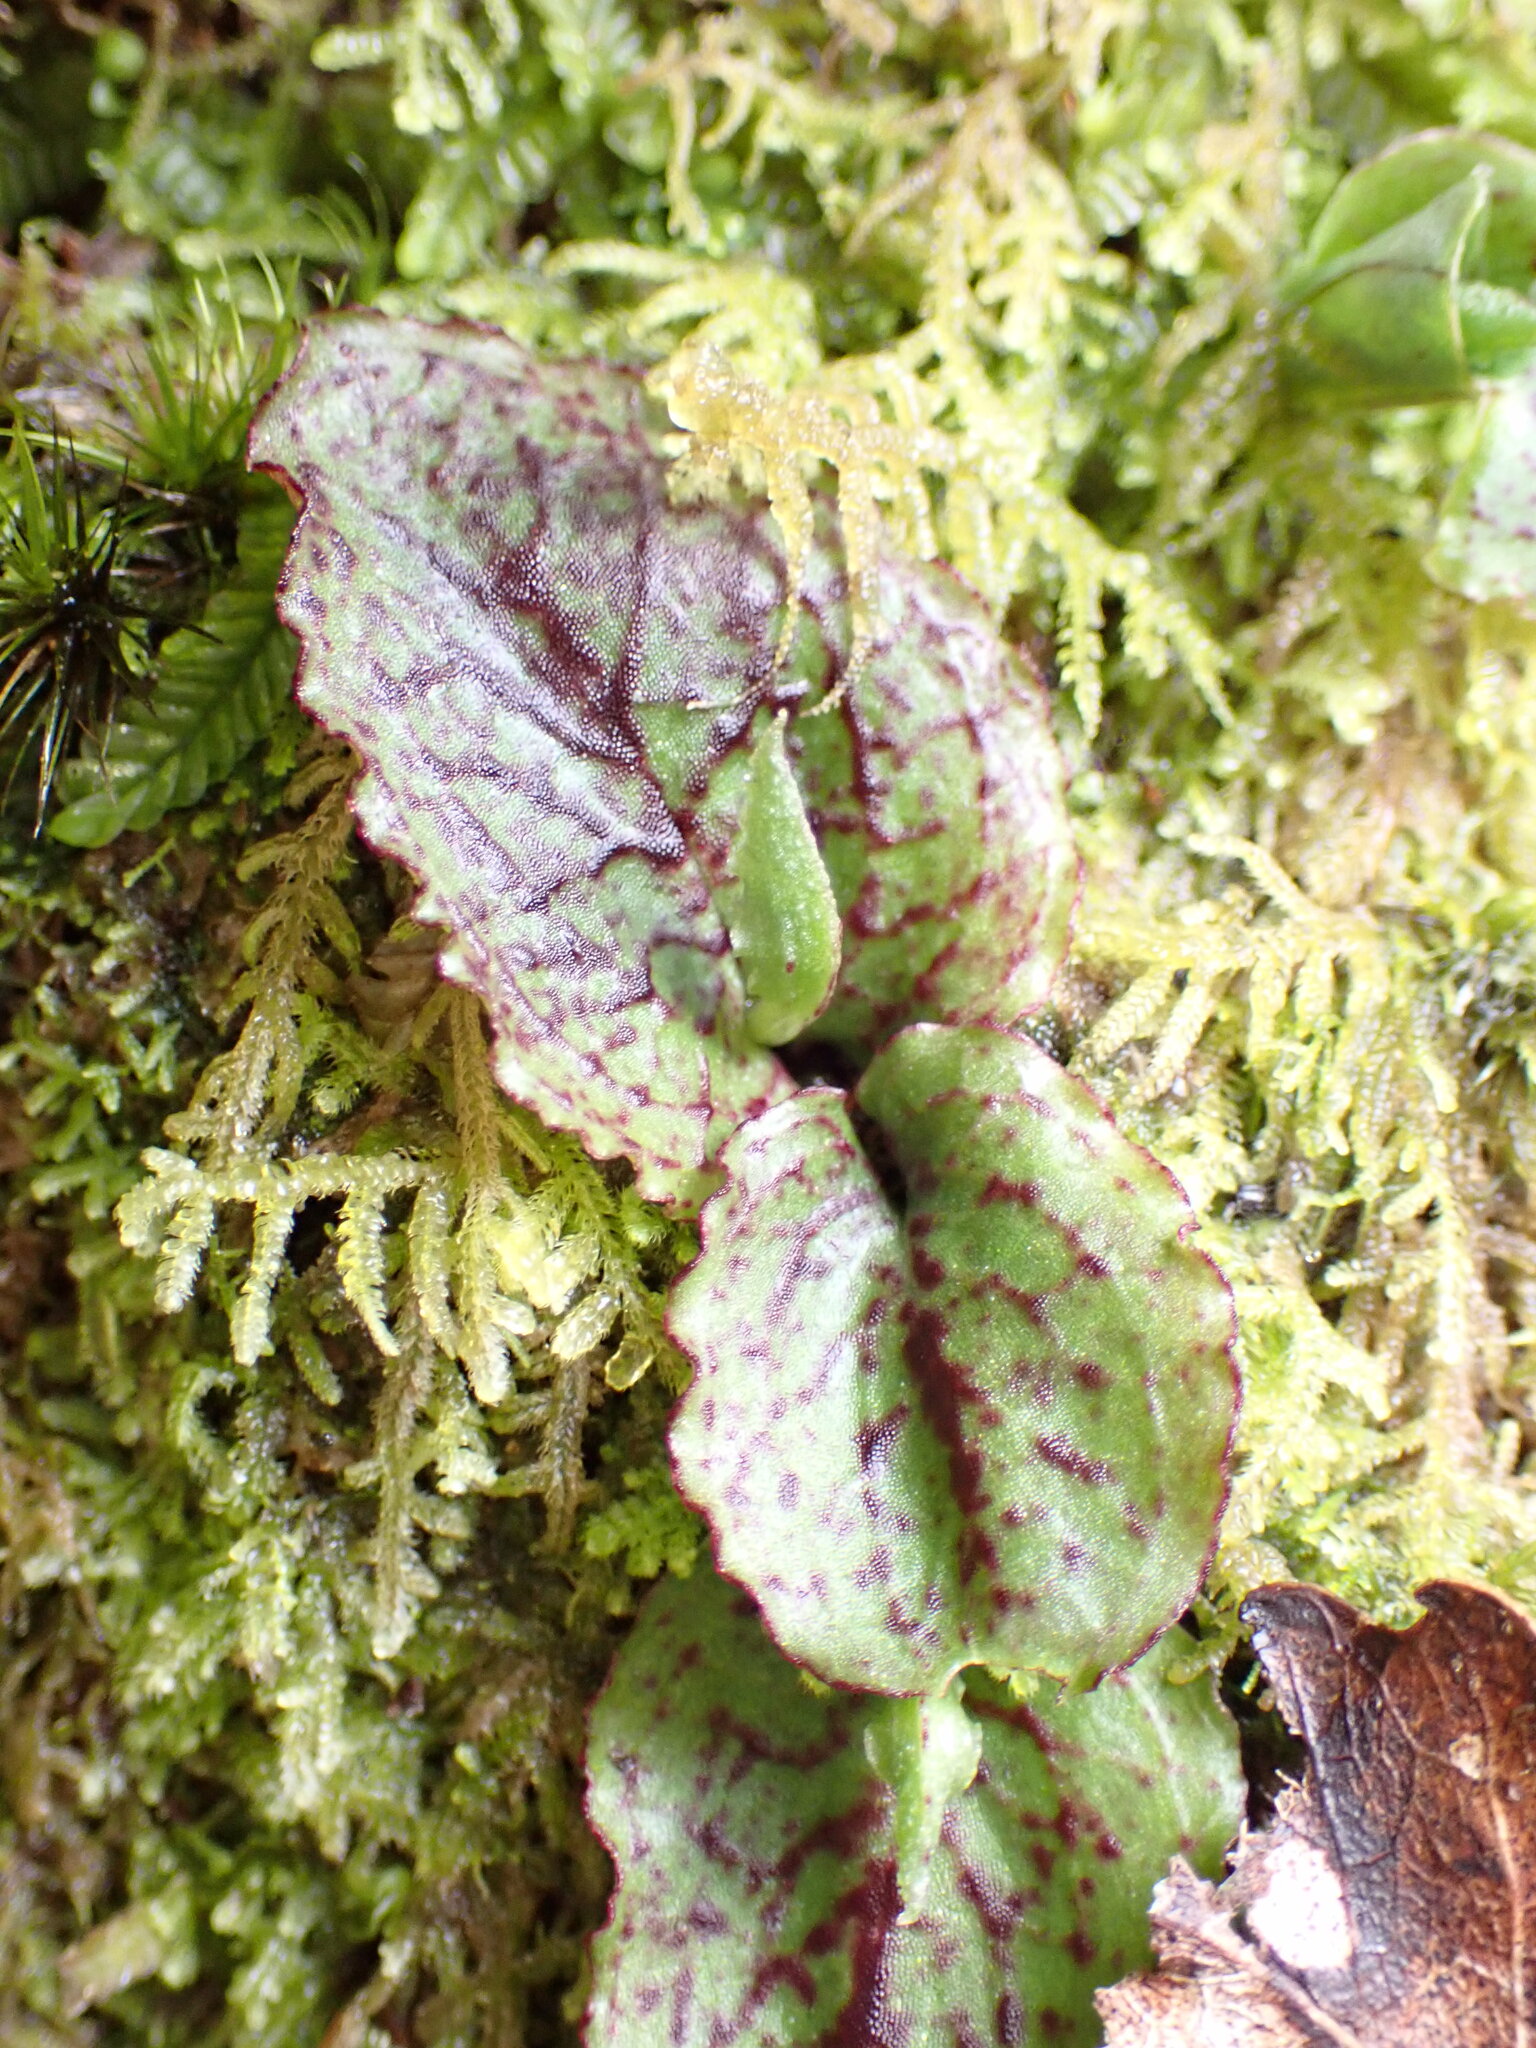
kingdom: Plantae
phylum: Tracheophyta
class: Liliopsida
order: Asparagales
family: Orchidaceae
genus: Corybas
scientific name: Corybas oblongus
